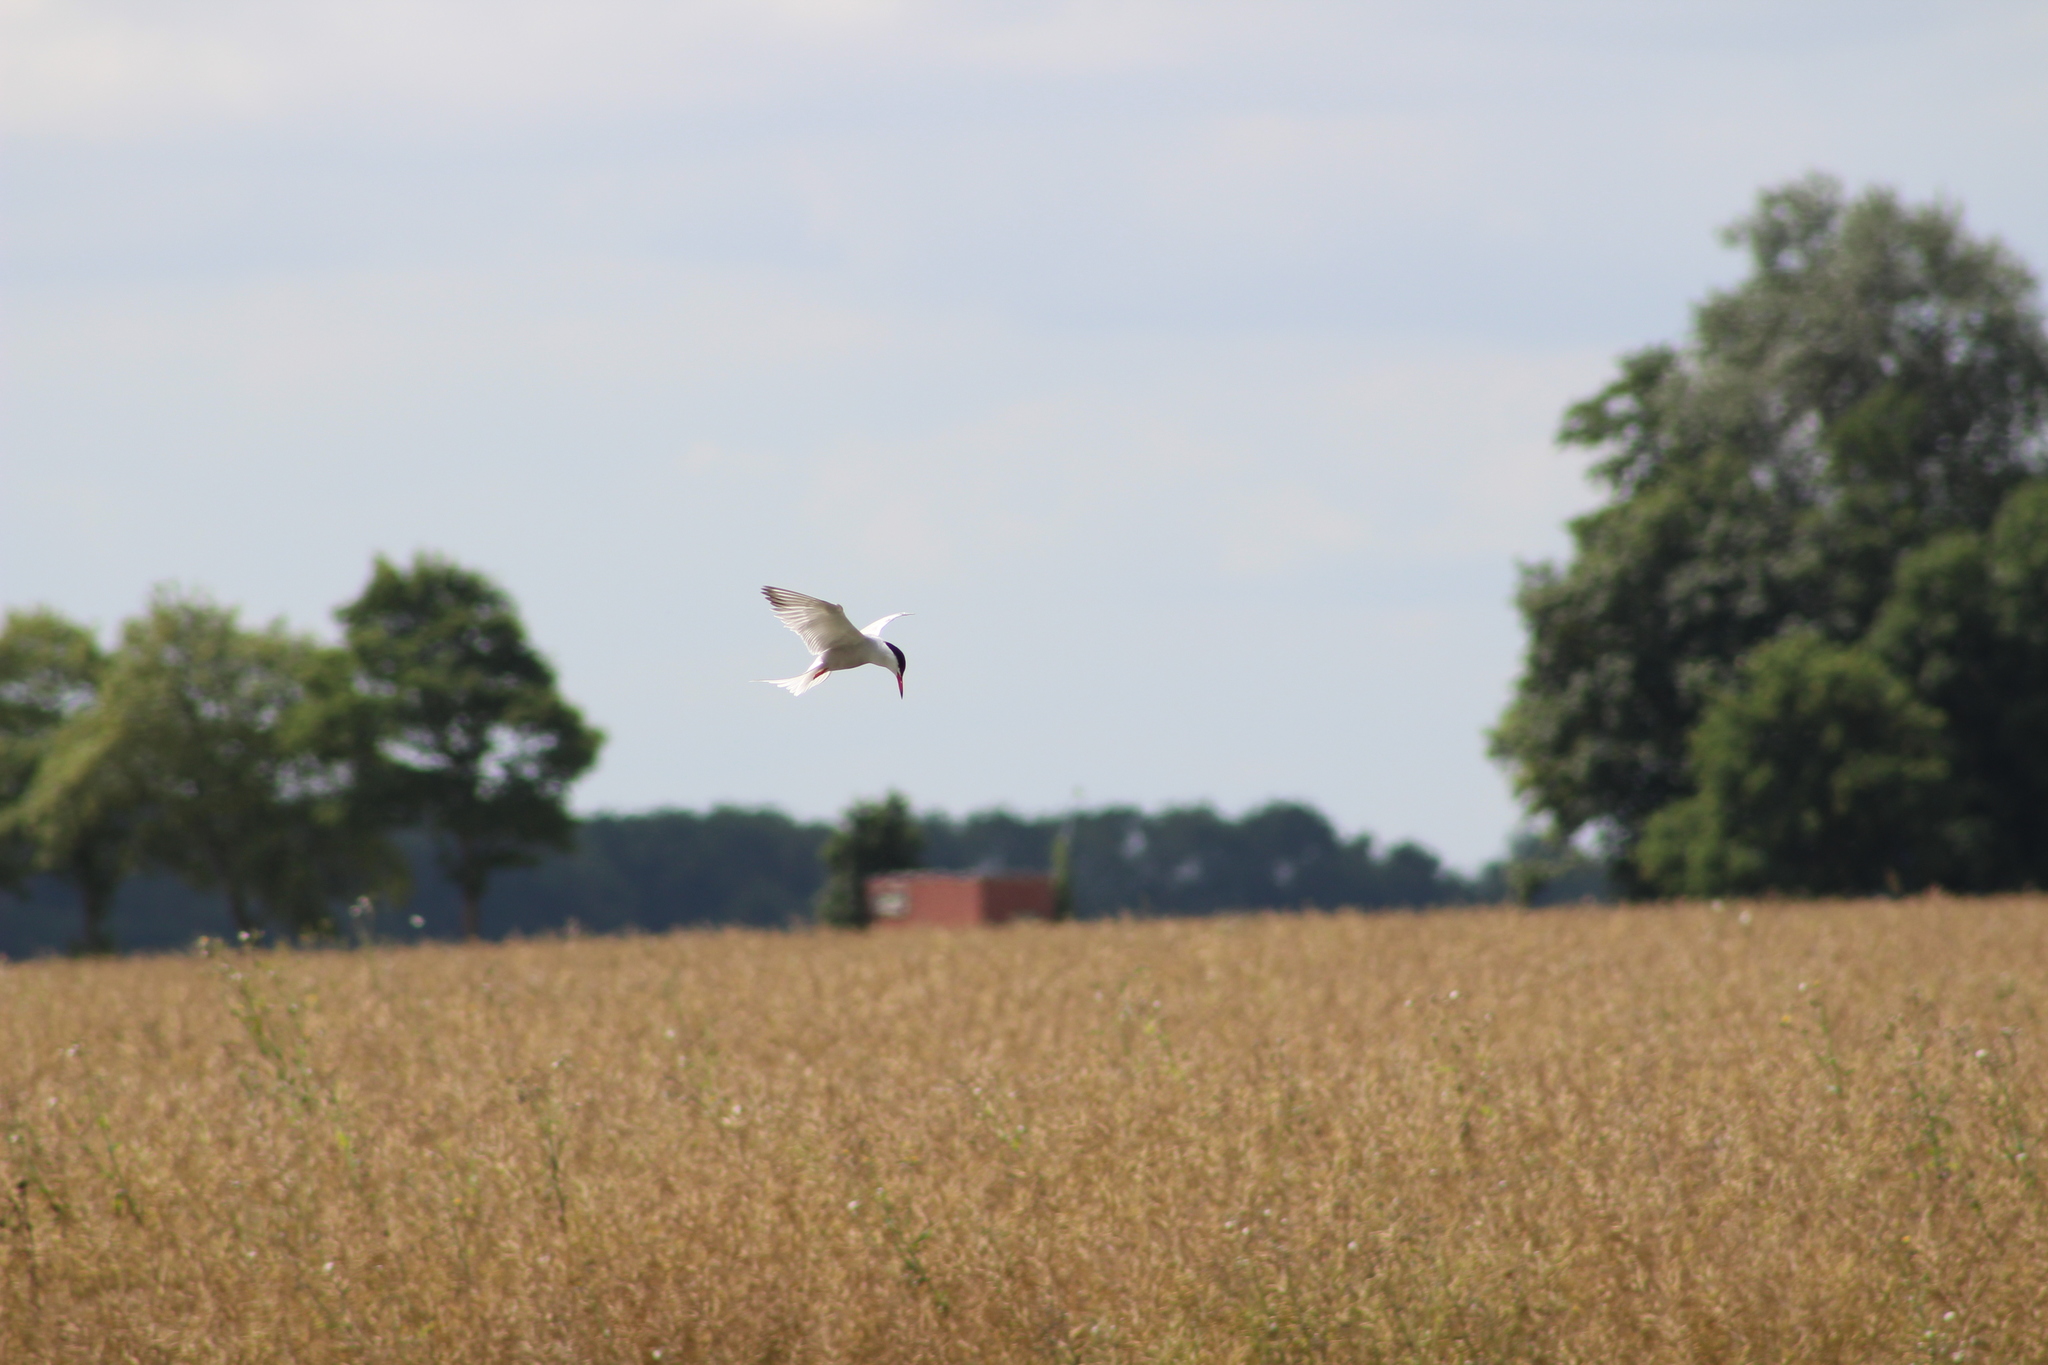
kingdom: Animalia
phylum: Chordata
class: Aves
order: Charadriiformes
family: Laridae
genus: Sterna
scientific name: Sterna hirundo
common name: Common tern
